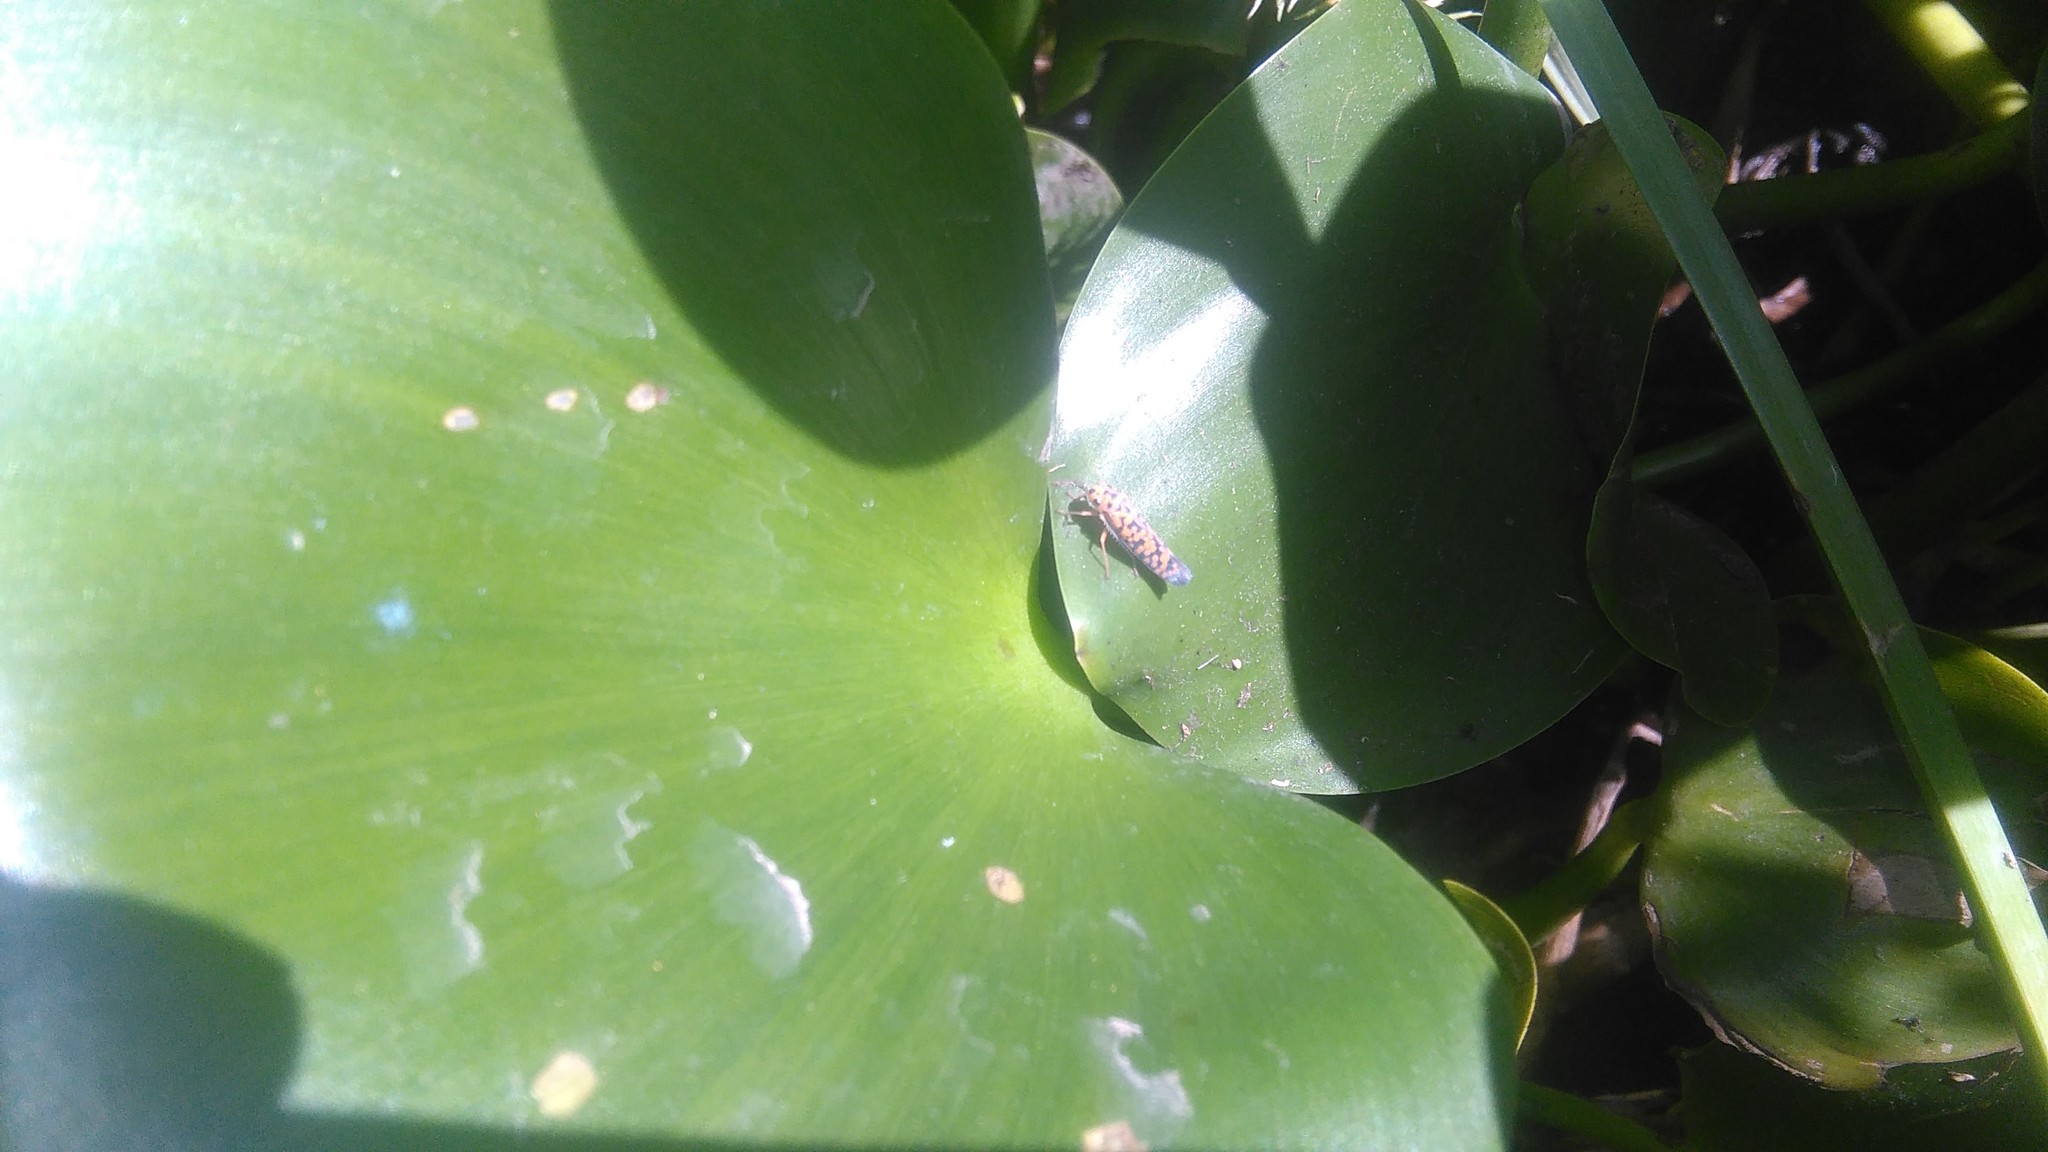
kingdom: Animalia
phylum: Arthropoda
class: Insecta
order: Hemiptera
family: Cicadellidae
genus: Pawiloma
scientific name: Pawiloma victima
